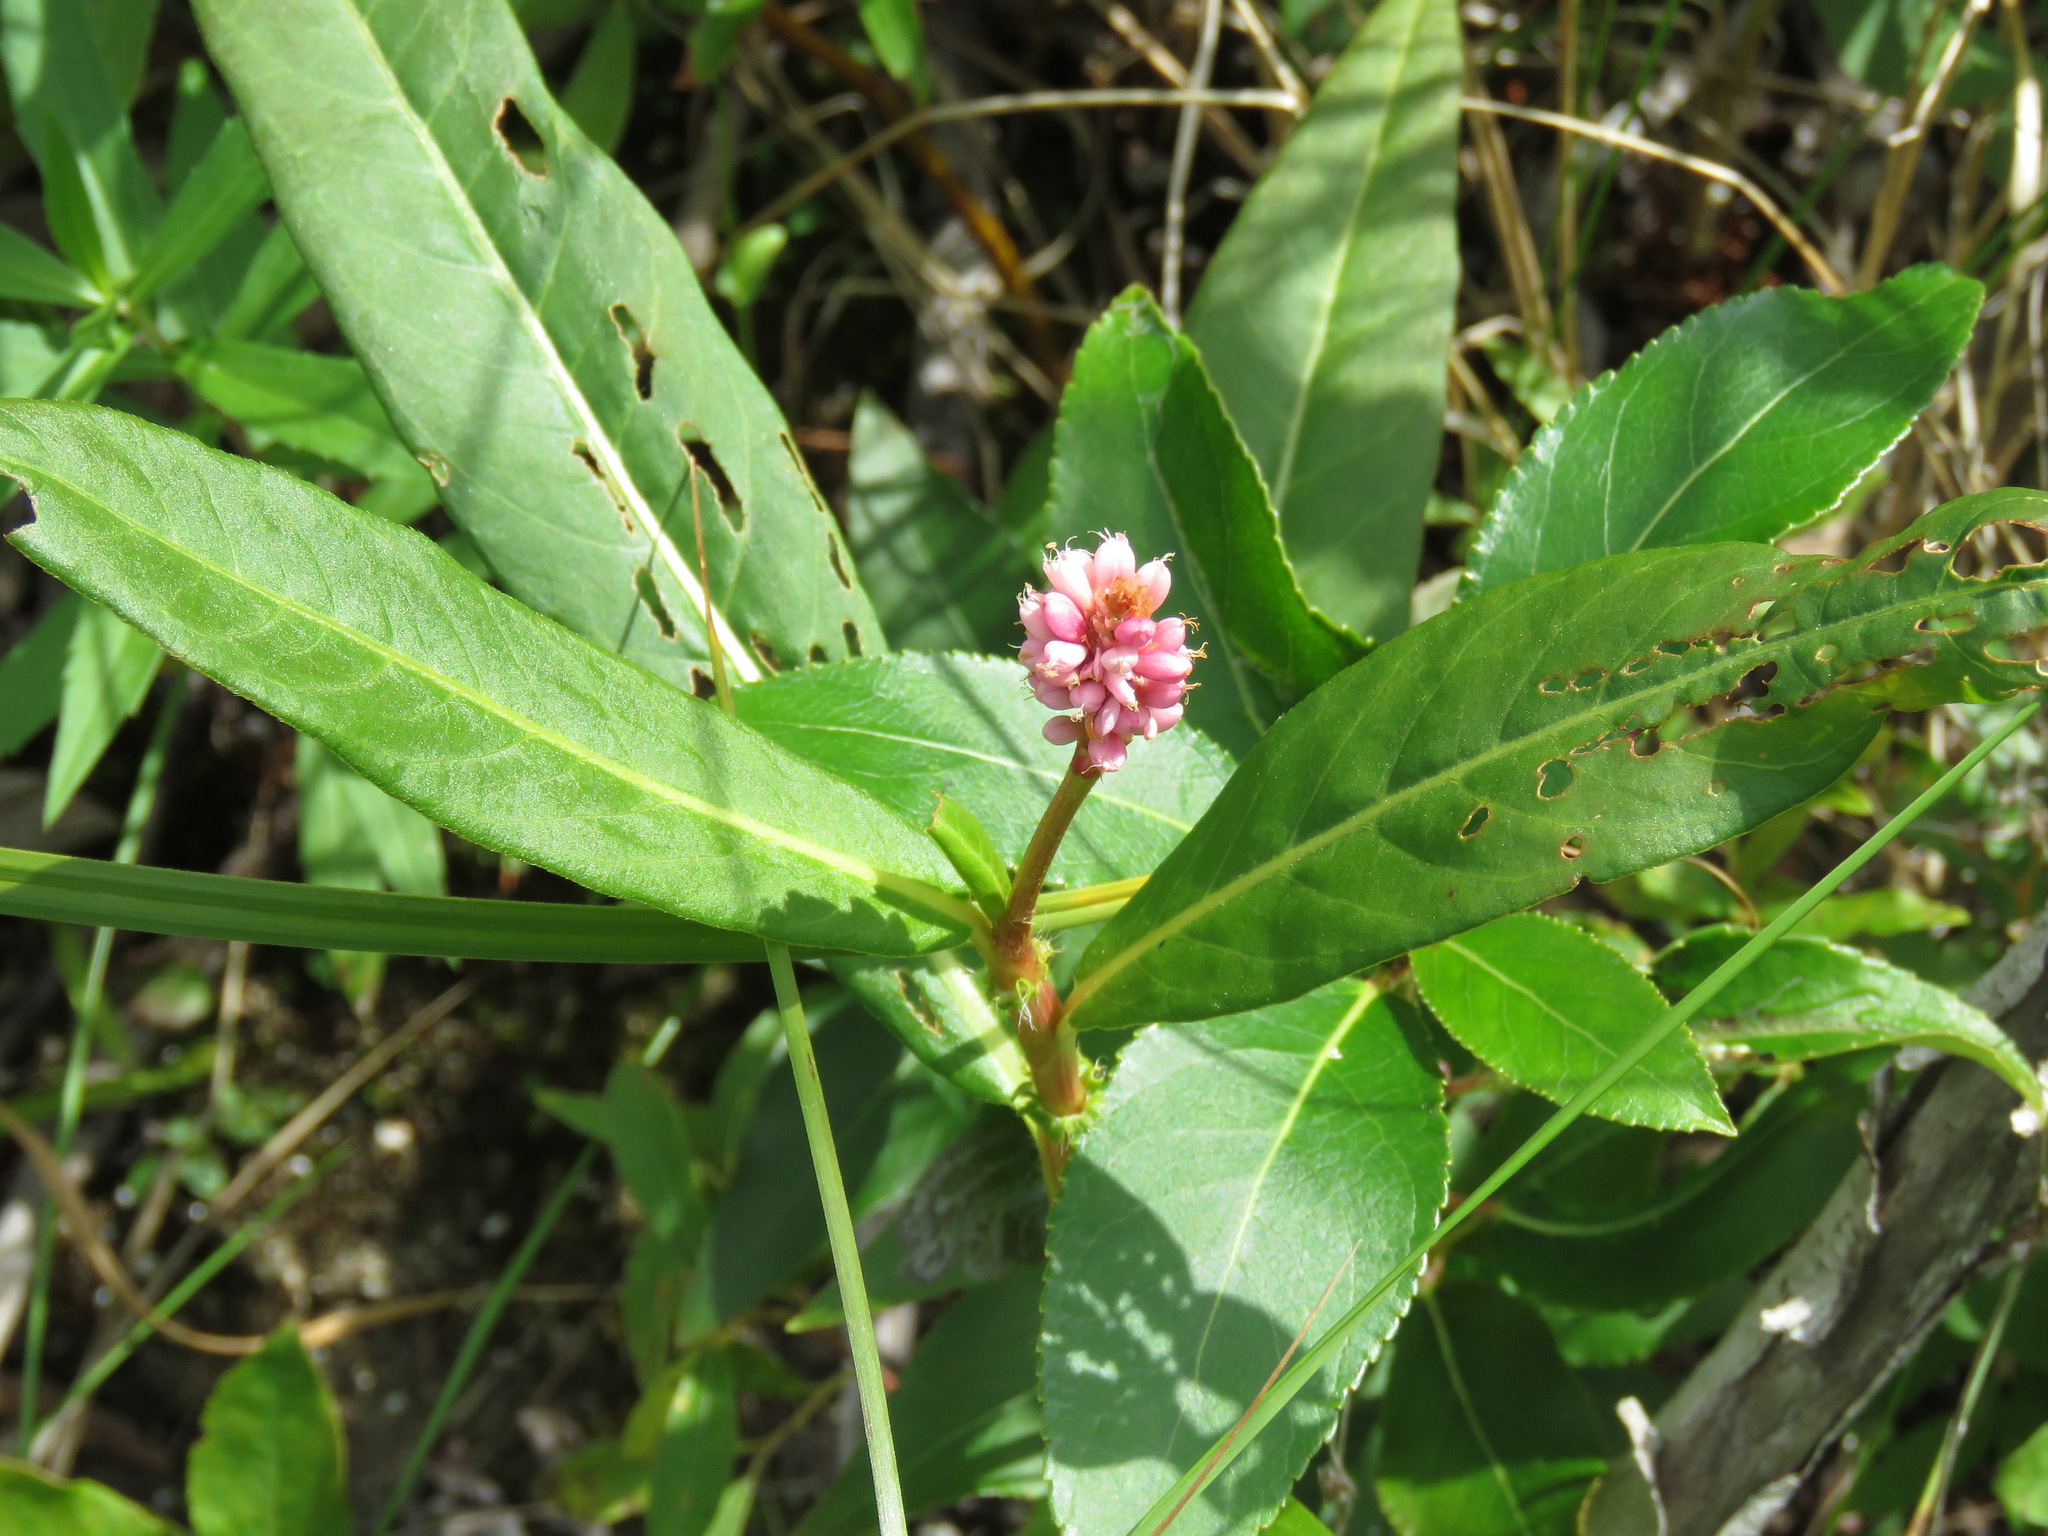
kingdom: Plantae
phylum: Tracheophyta
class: Magnoliopsida
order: Caryophyllales
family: Polygonaceae
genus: Persicaria
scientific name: Persicaria amphibia
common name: Amphibious bistort
